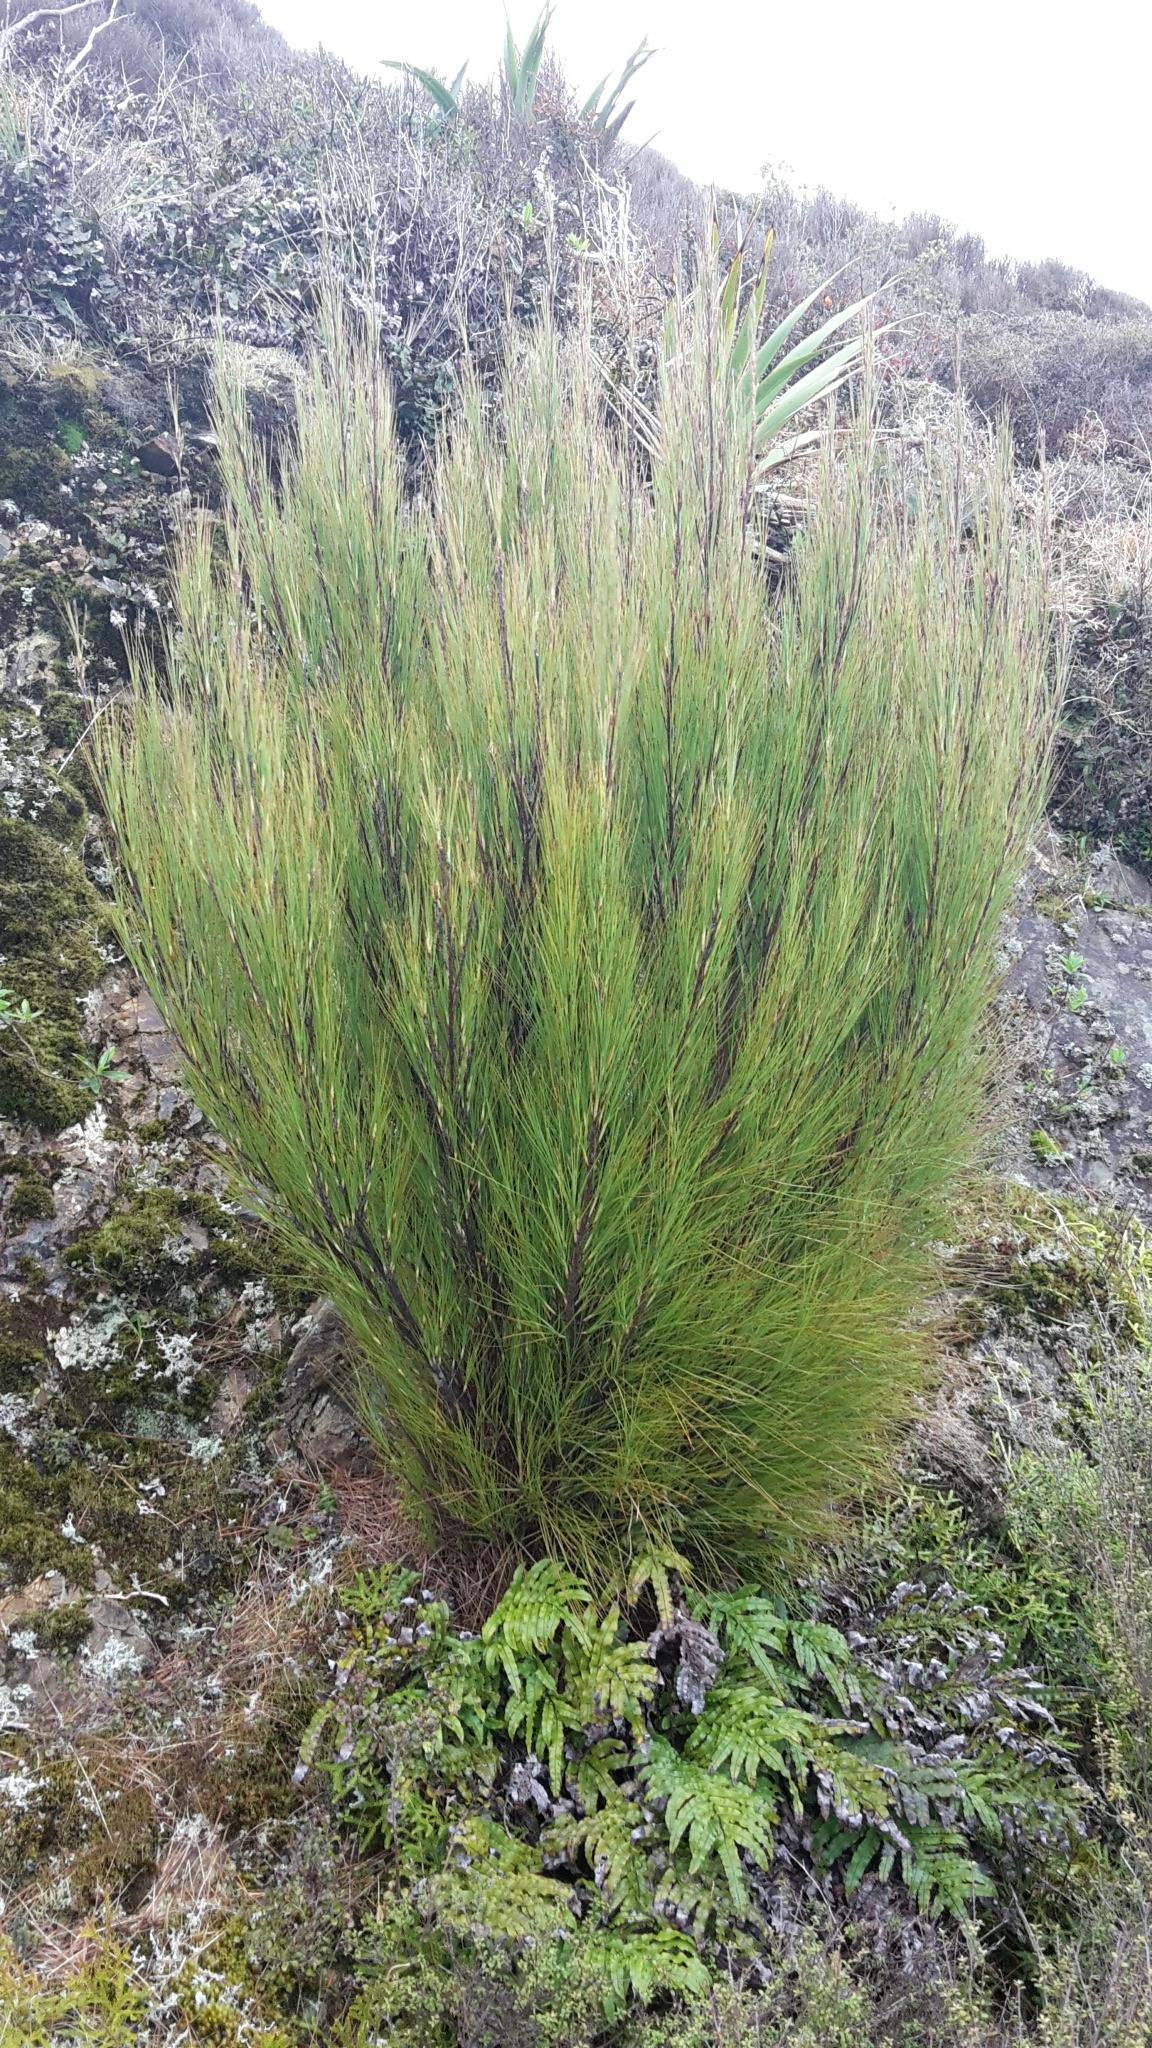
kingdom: Plantae
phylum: Tracheophyta
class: Magnoliopsida
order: Ericales
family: Ericaceae
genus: Dracophyllum
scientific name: Dracophyllum filifolium
